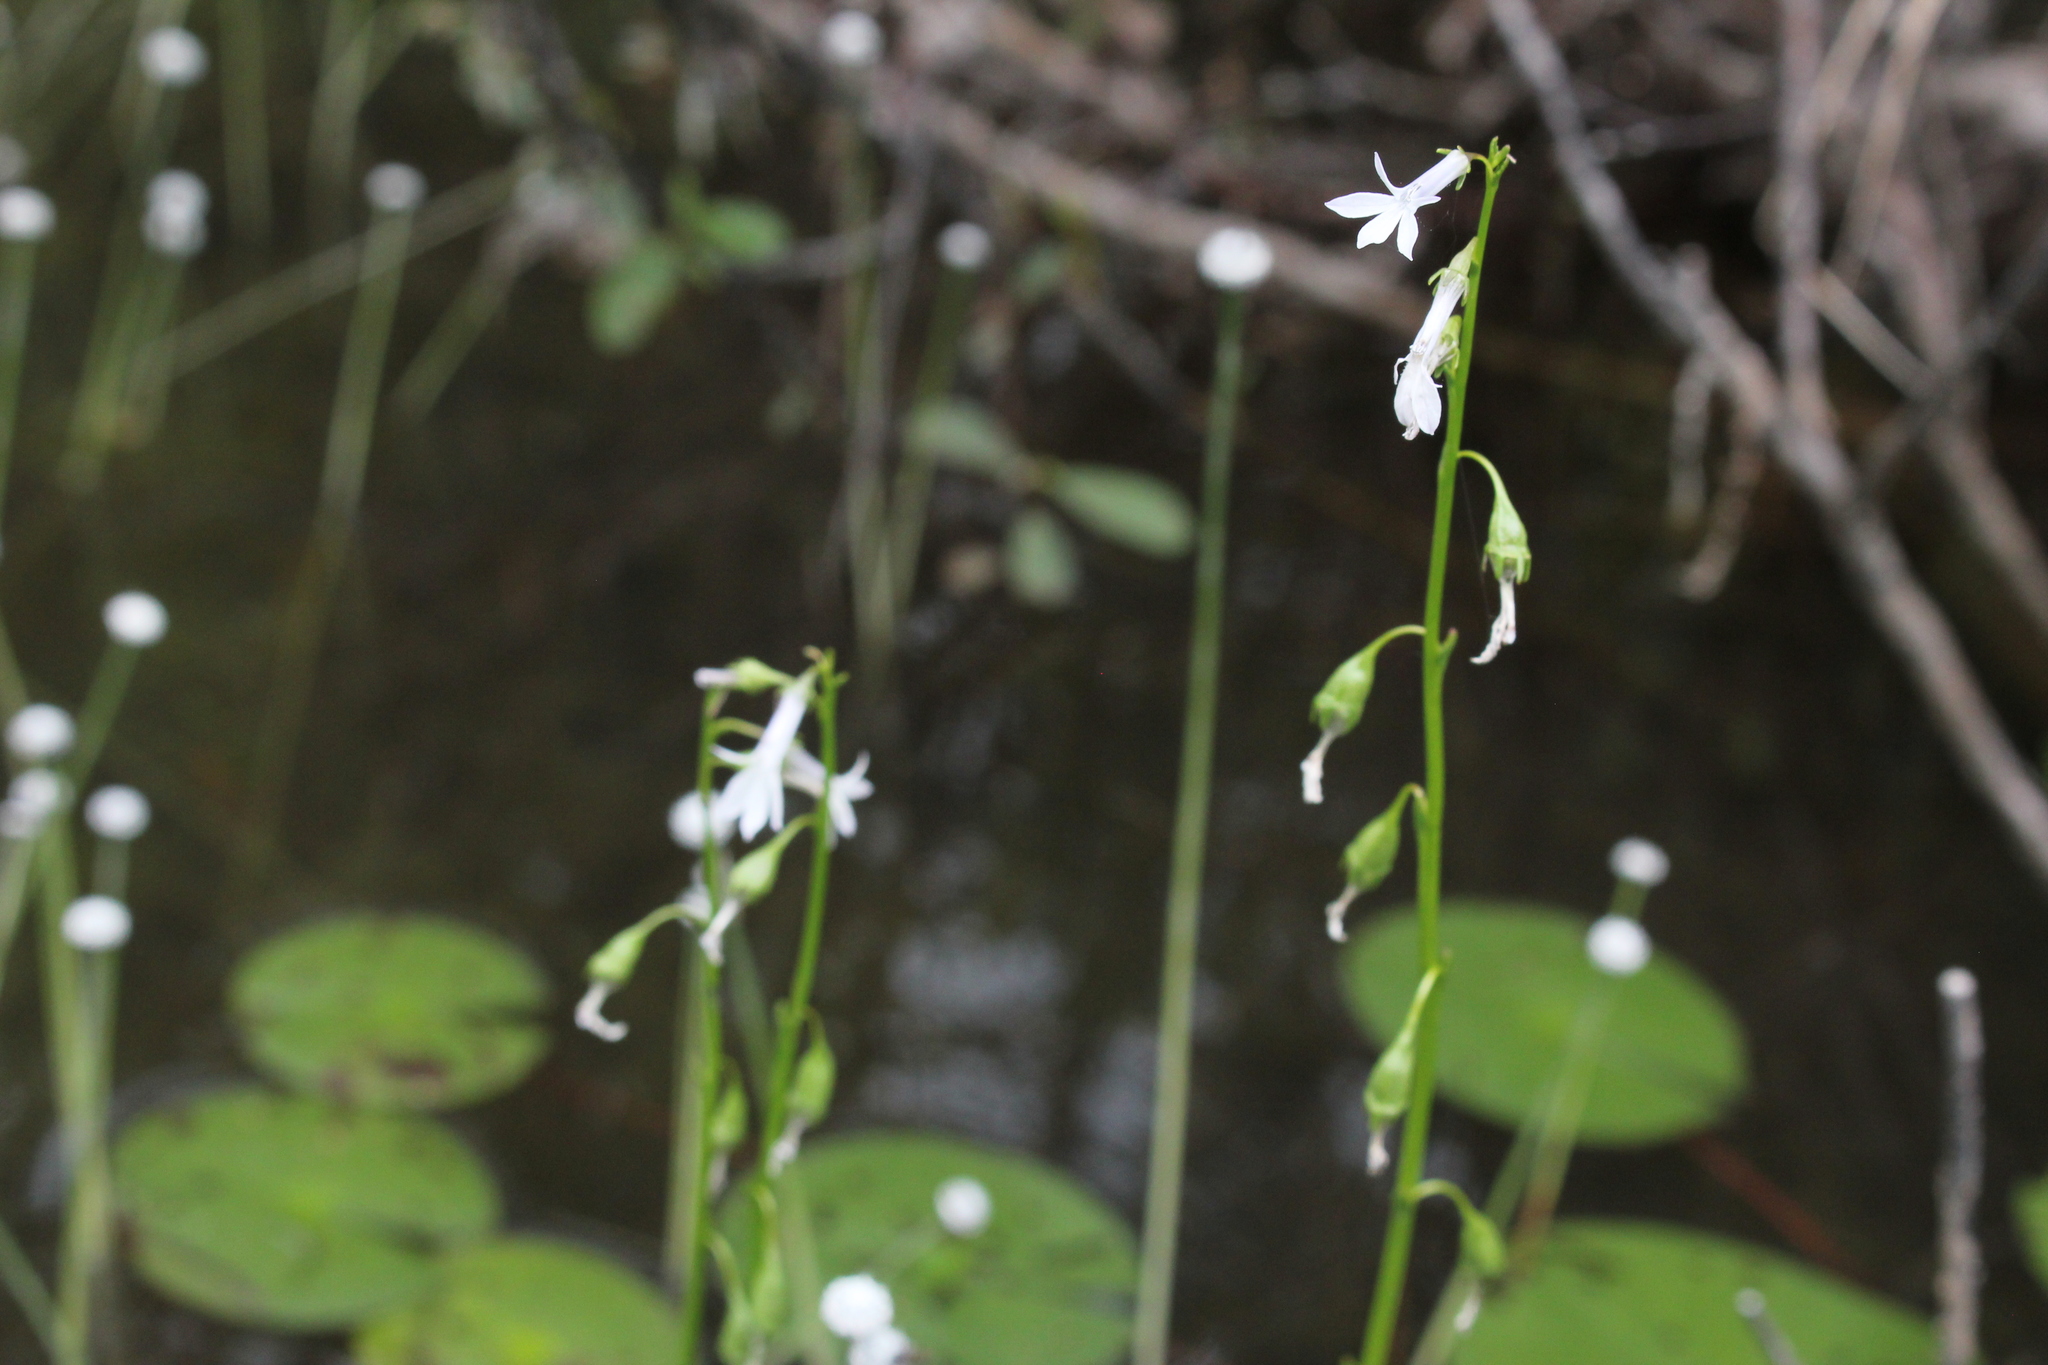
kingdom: Plantae
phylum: Tracheophyta
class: Magnoliopsida
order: Asterales
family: Campanulaceae
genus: Lobelia
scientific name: Lobelia dortmanna
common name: Water lobelia
